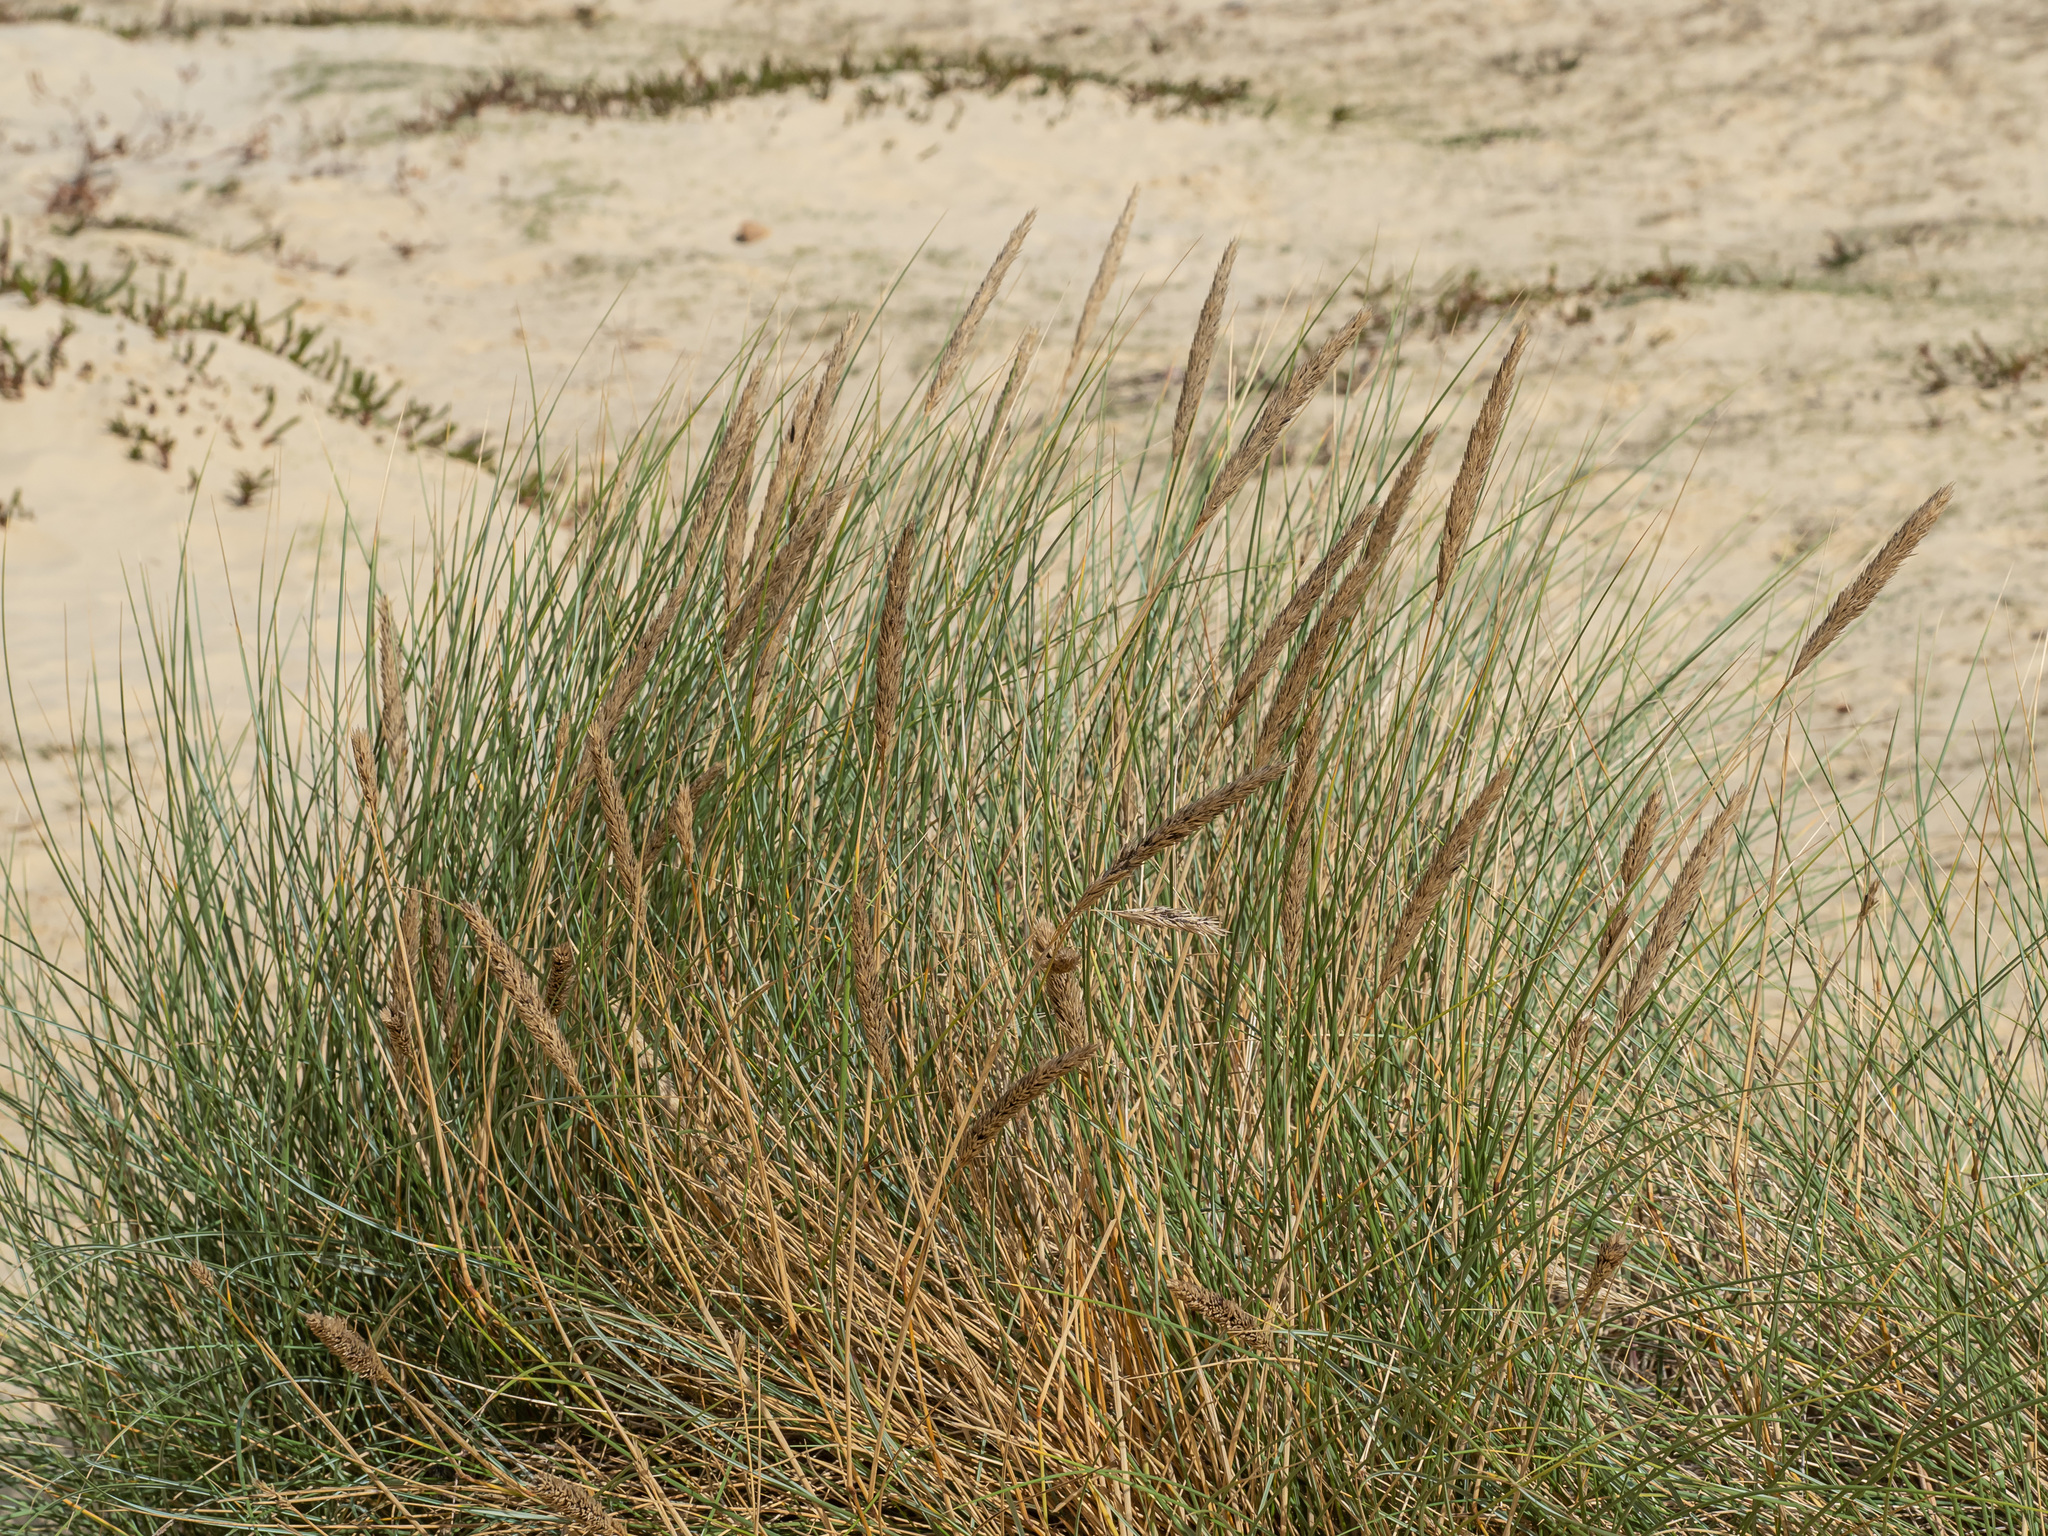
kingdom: Plantae
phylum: Tracheophyta
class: Liliopsida
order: Poales
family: Poaceae
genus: Calamagrostis
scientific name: Calamagrostis arenaria
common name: European beachgrass
